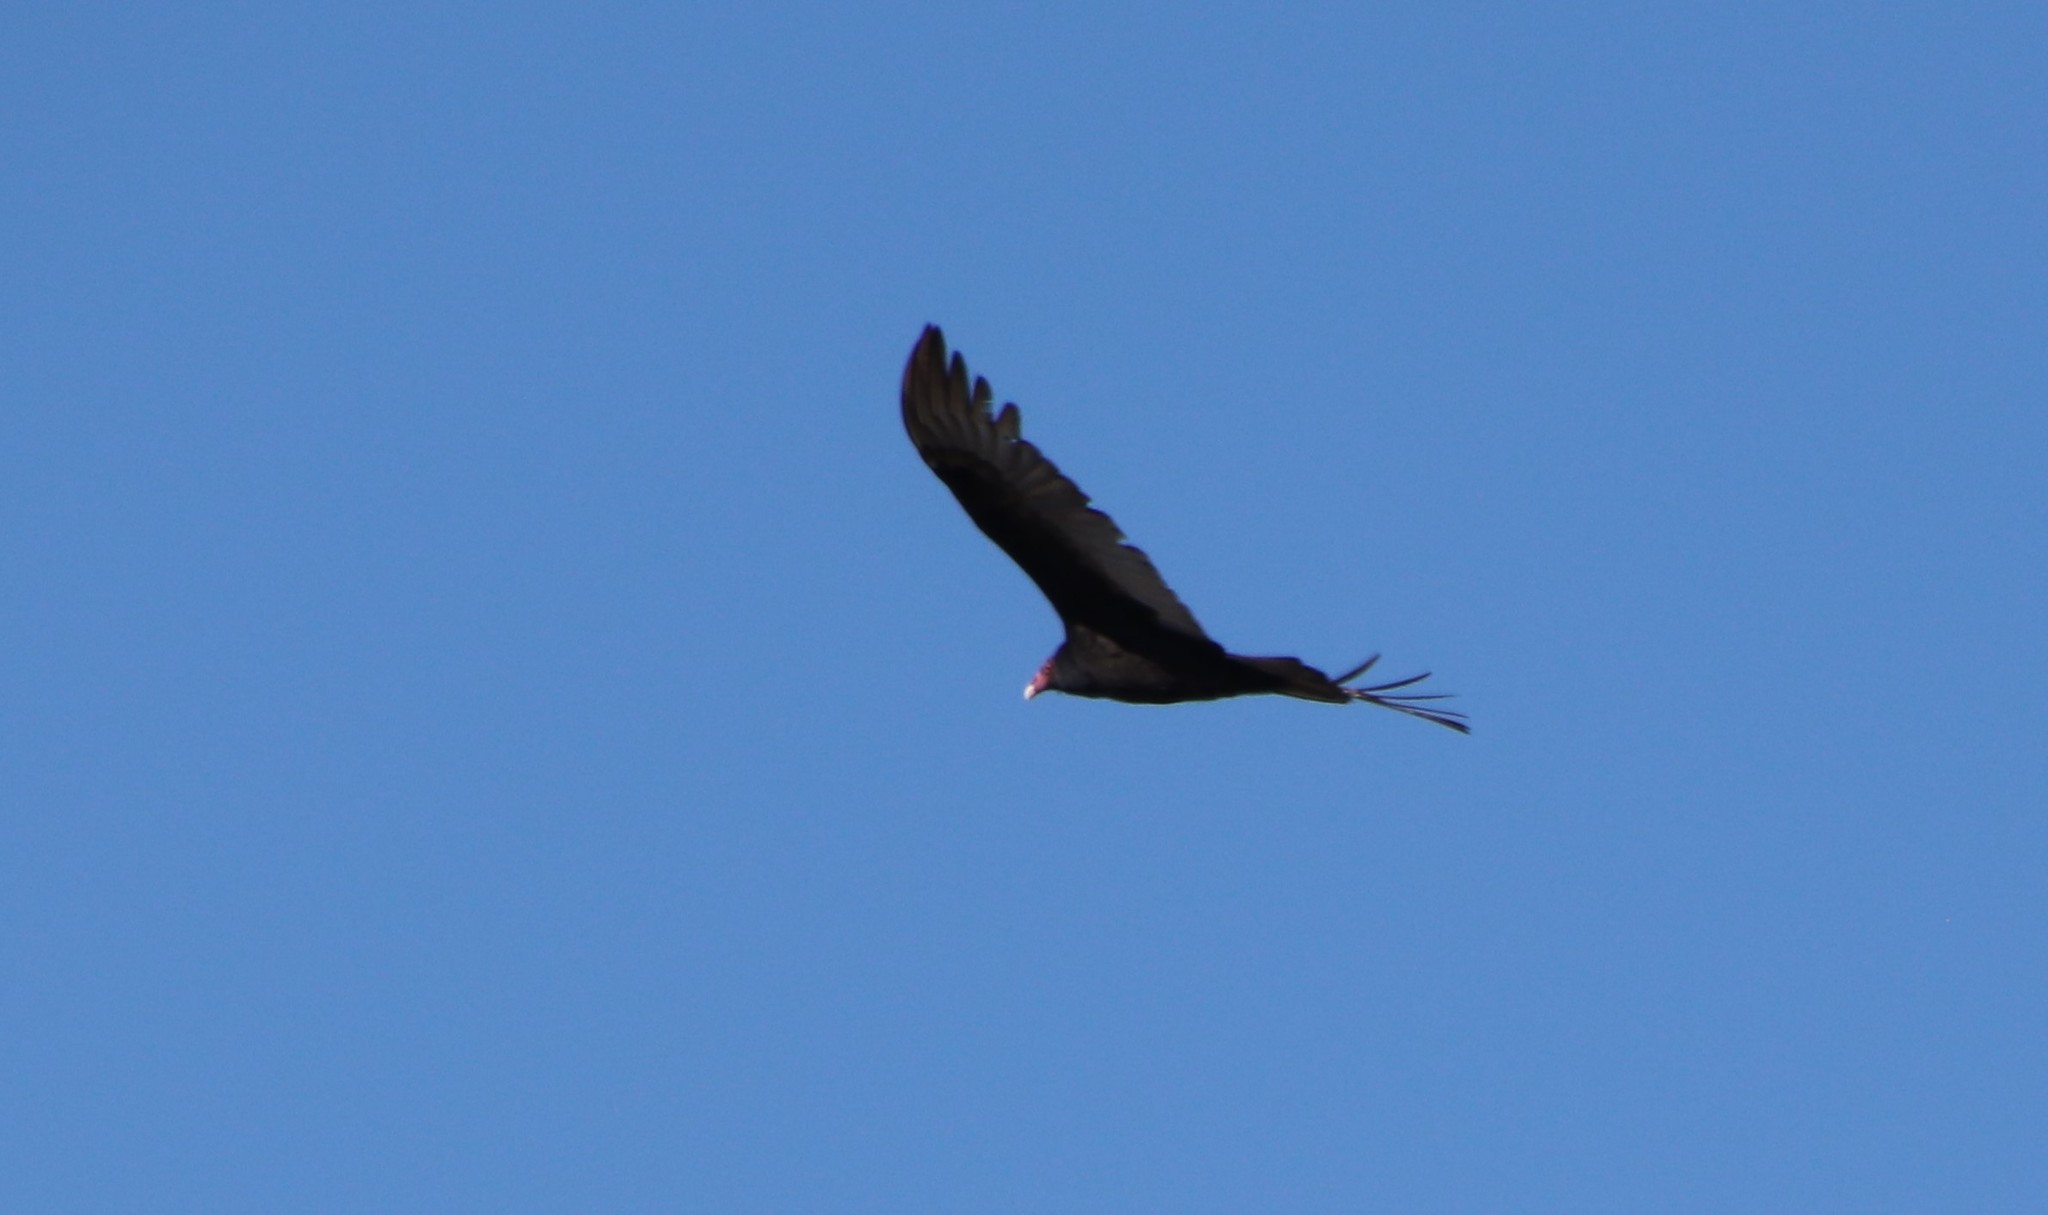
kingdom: Animalia
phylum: Chordata
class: Aves
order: Accipitriformes
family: Cathartidae
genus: Cathartes
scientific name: Cathartes aura
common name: Turkey vulture
